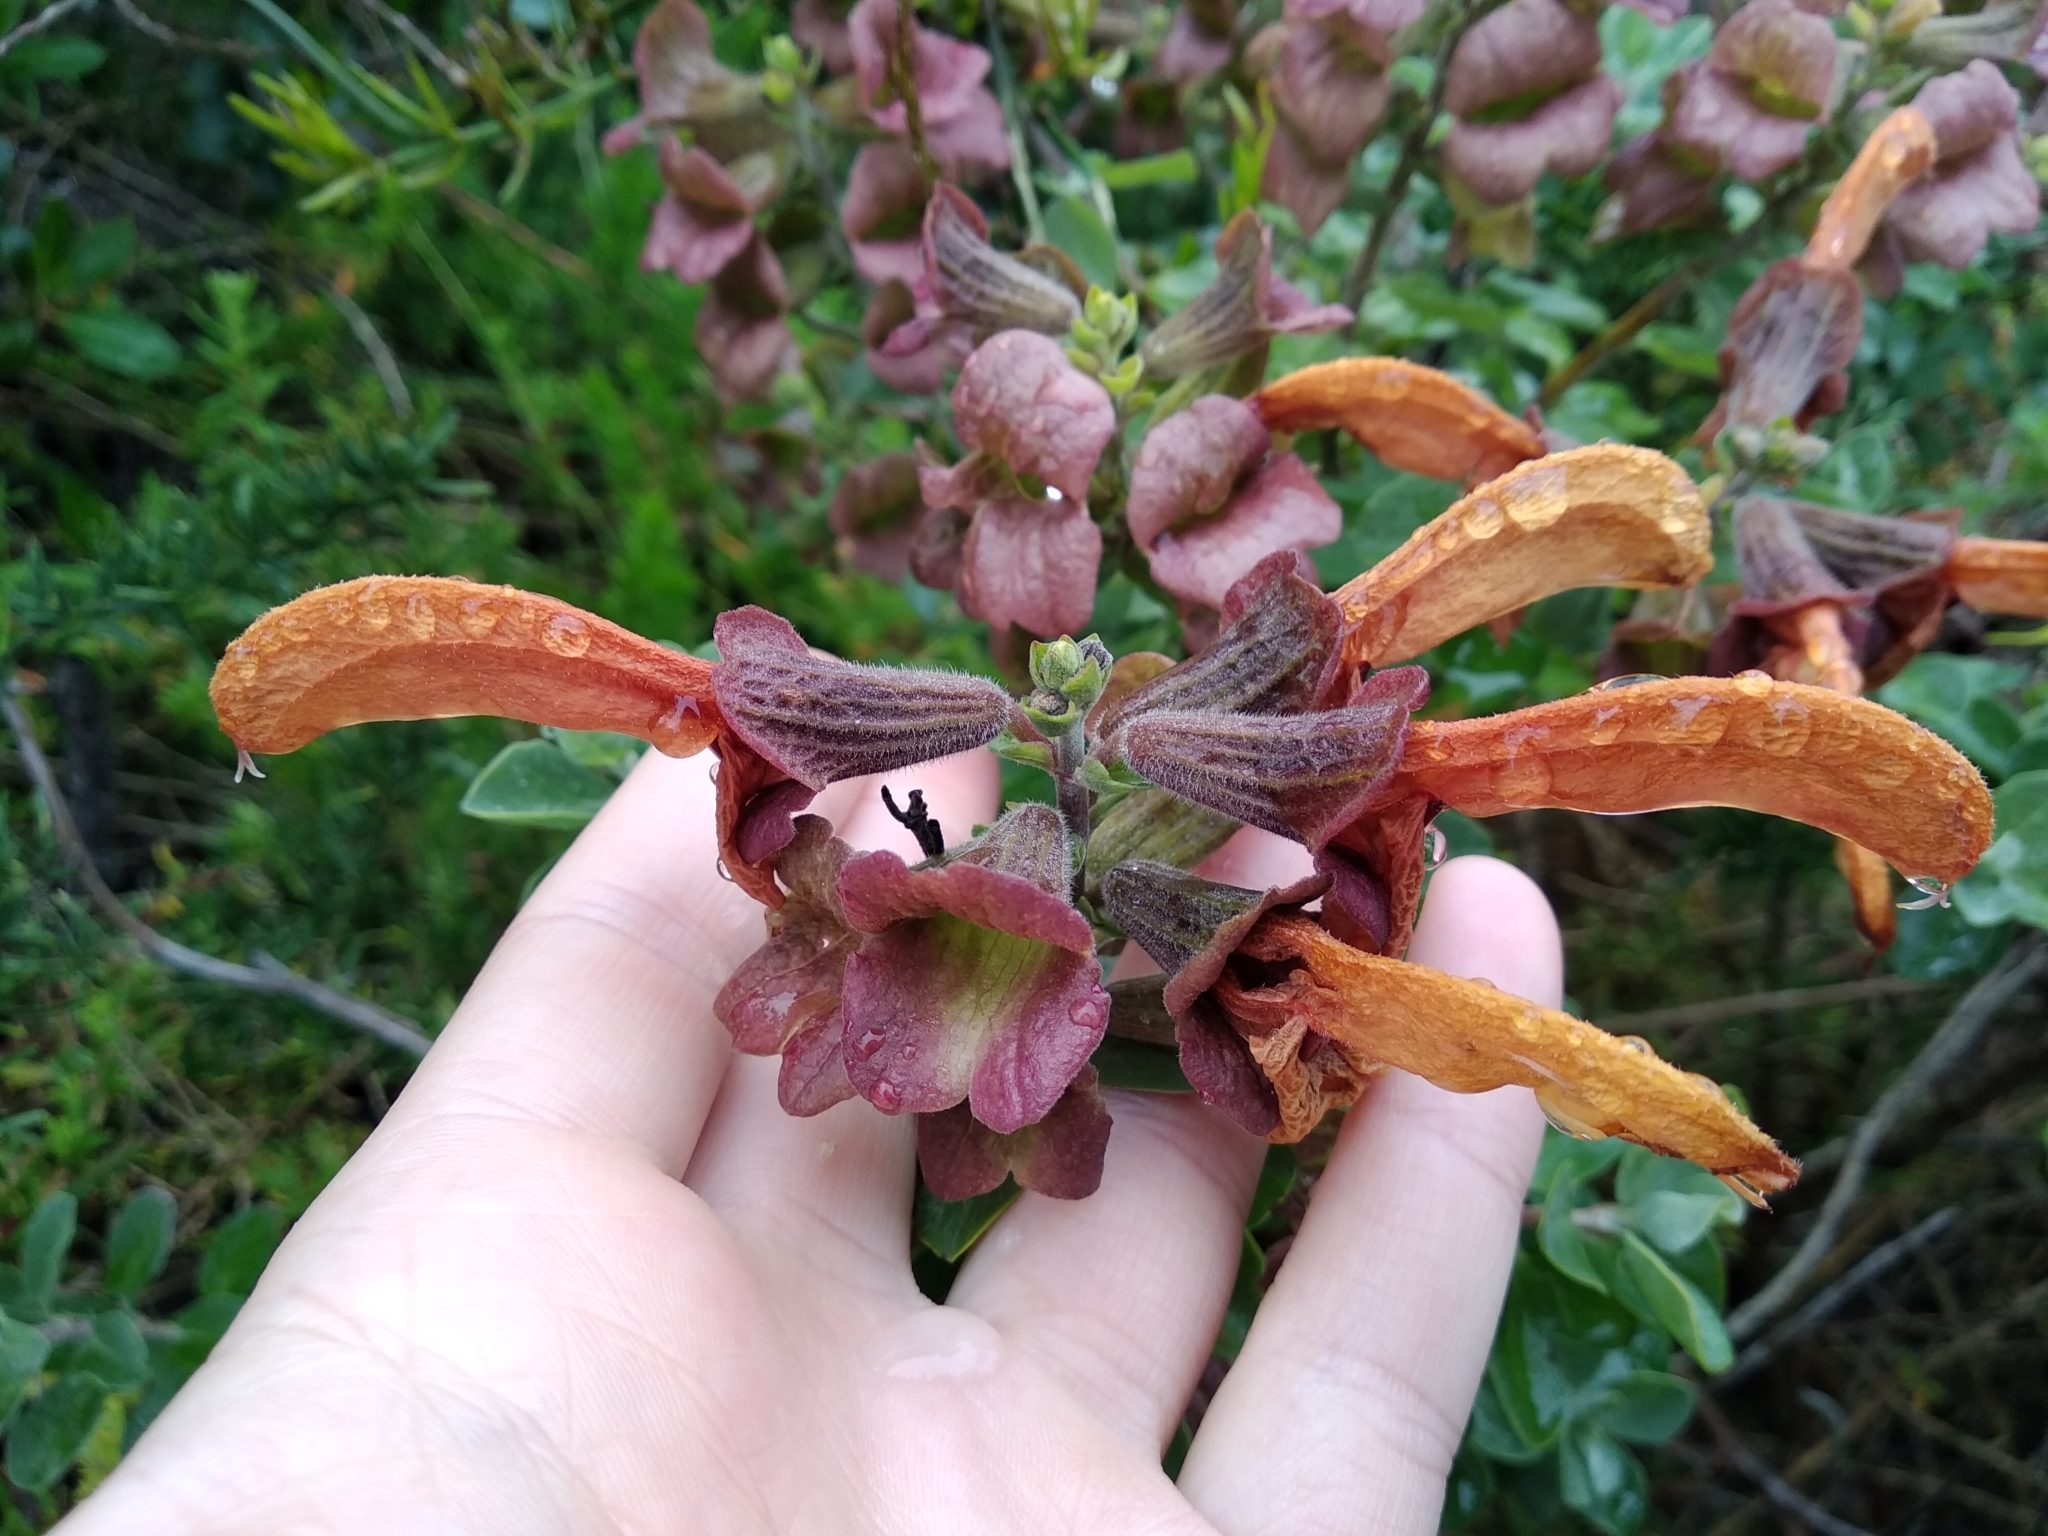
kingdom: Plantae
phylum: Tracheophyta
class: Magnoliopsida
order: Lamiales
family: Lamiaceae
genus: Salvia
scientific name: Salvia aurea
